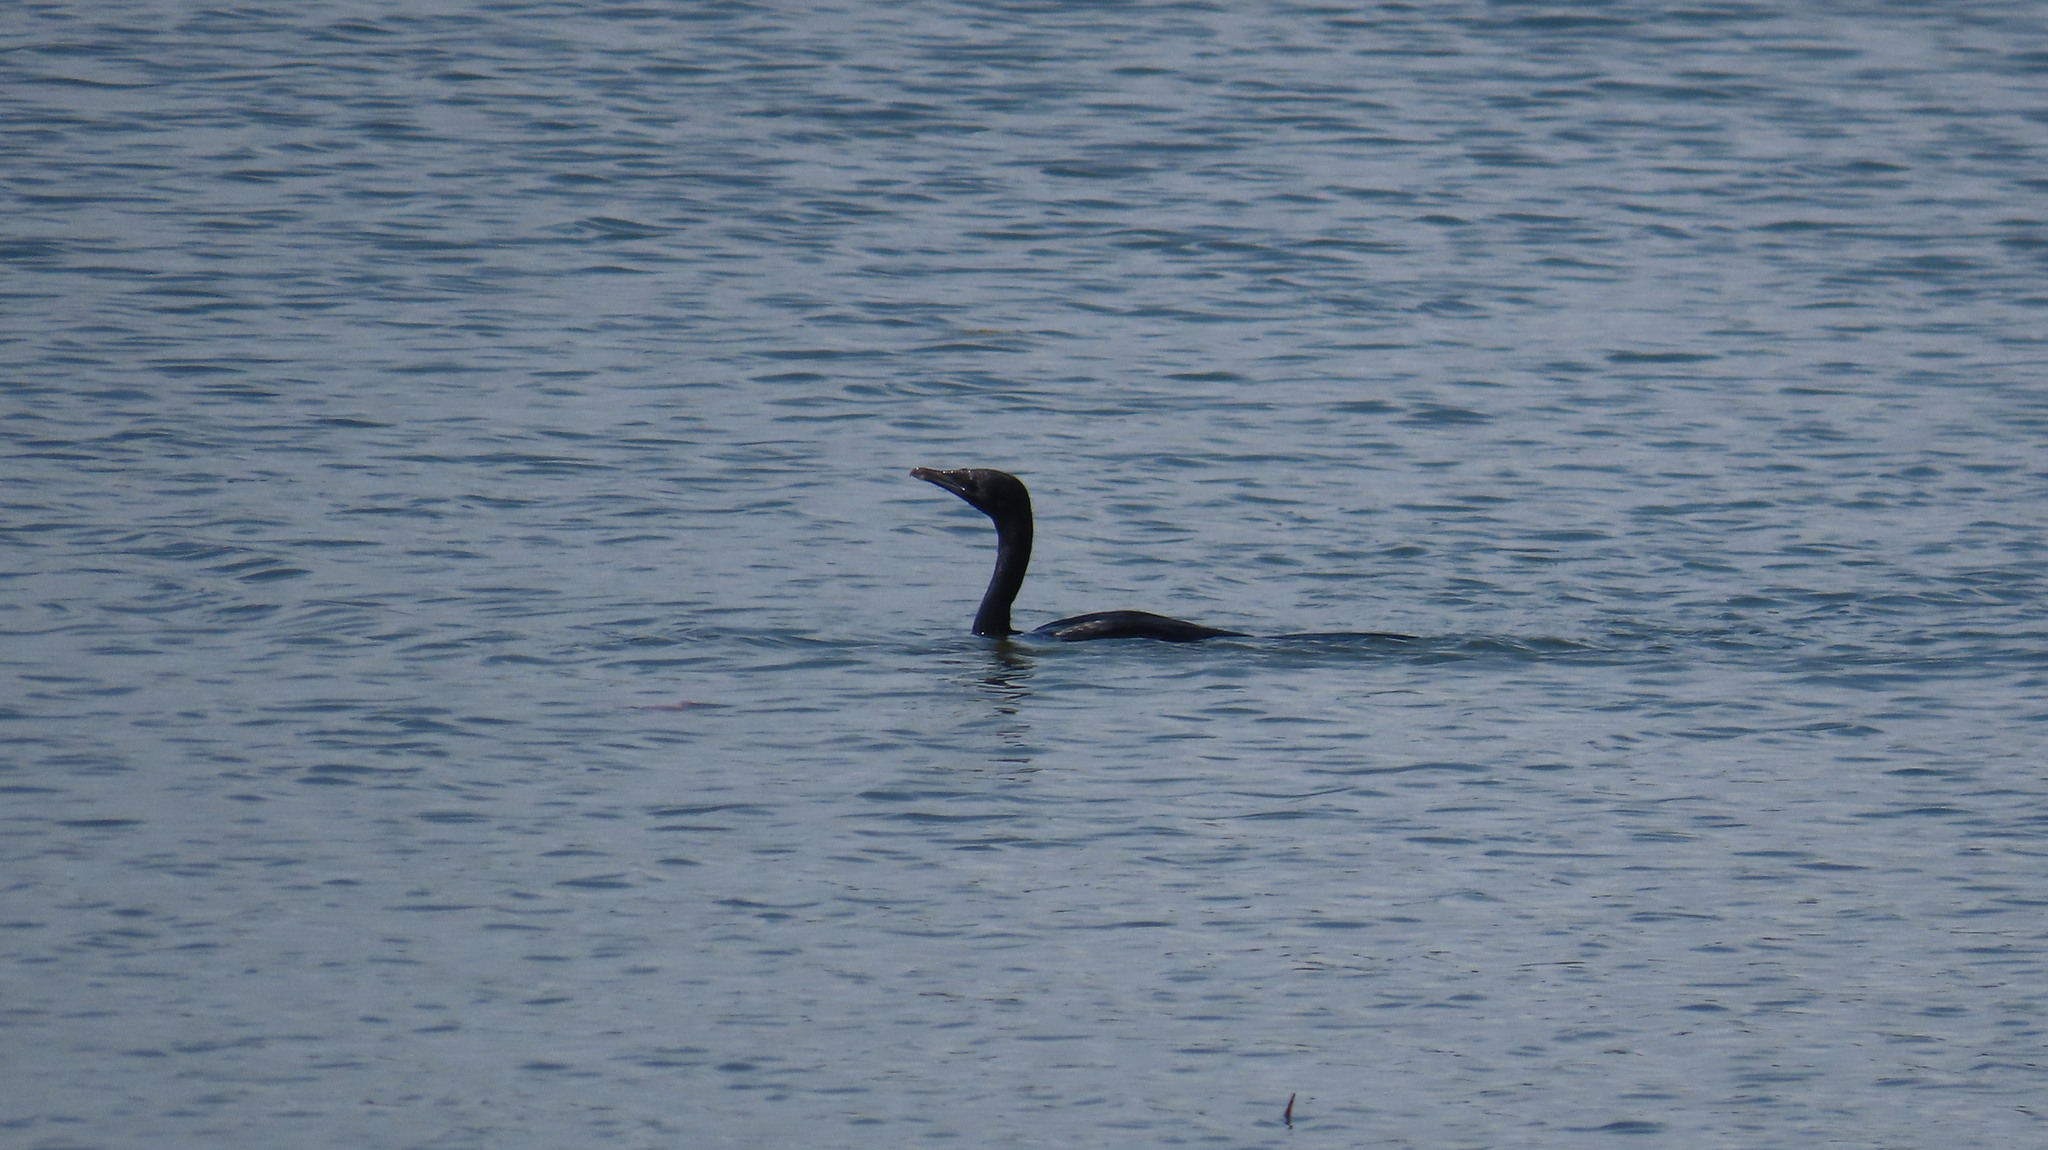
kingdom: Animalia
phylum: Chordata
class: Aves
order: Suliformes
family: Phalacrocoracidae
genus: Microcarbo
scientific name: Microcarbo niger
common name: Little cormorant
